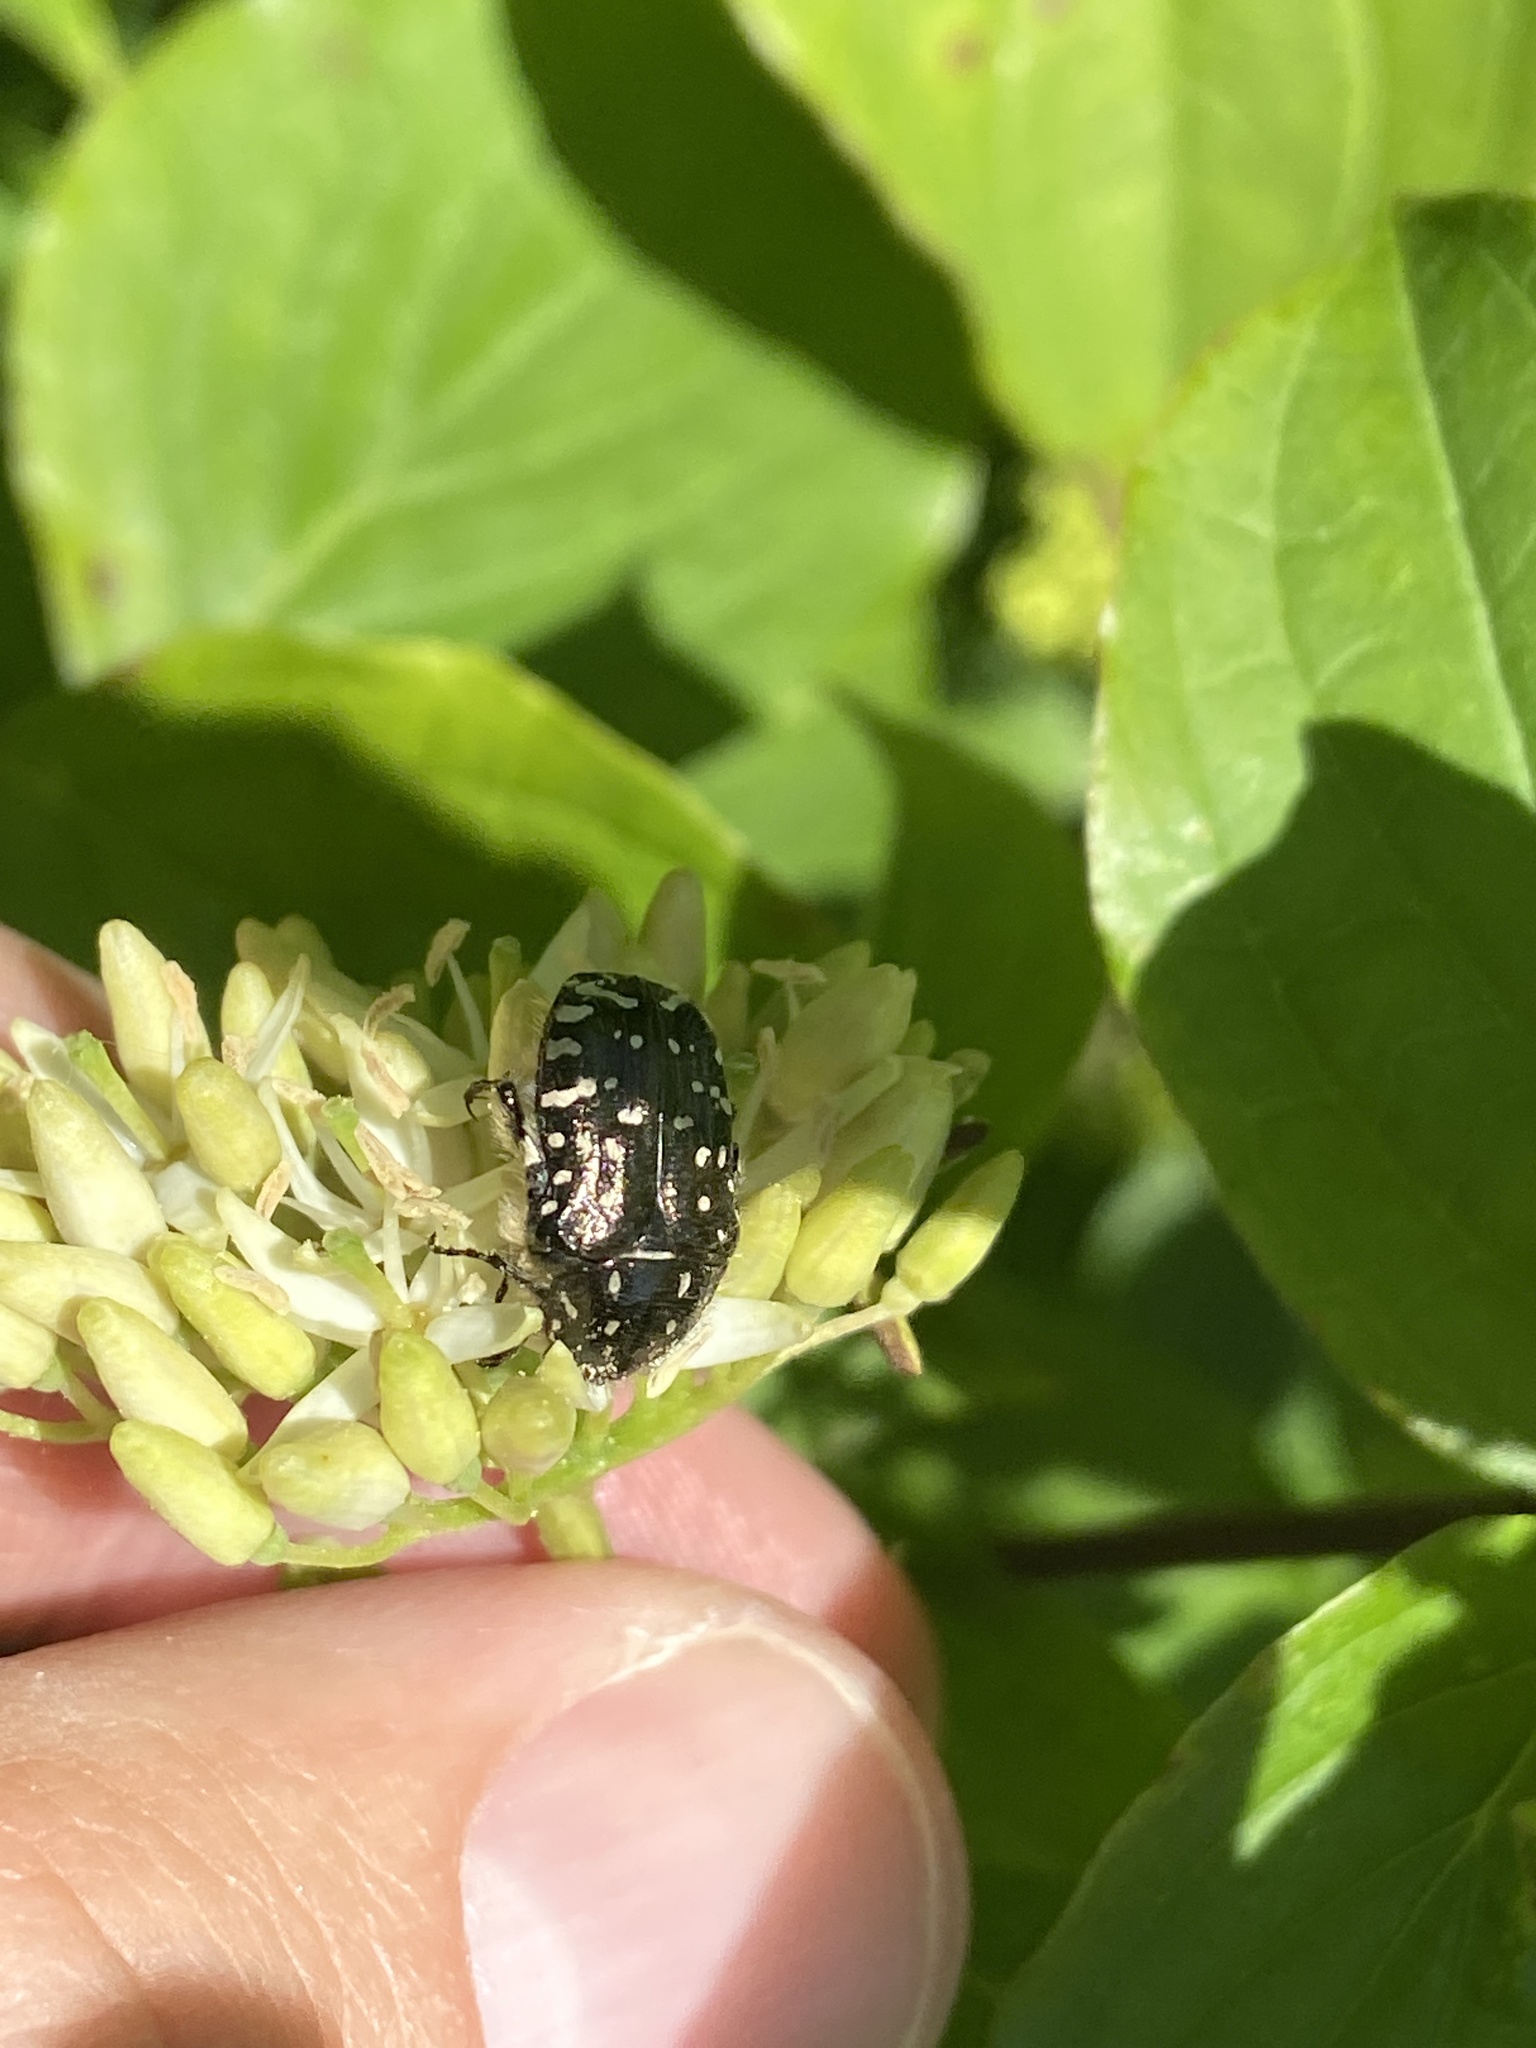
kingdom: Animalia
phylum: Arthropoda
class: Insecta
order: Coleoptera
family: Scarabaeidae
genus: Oxythyrea
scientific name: Oxythyrea funesta
